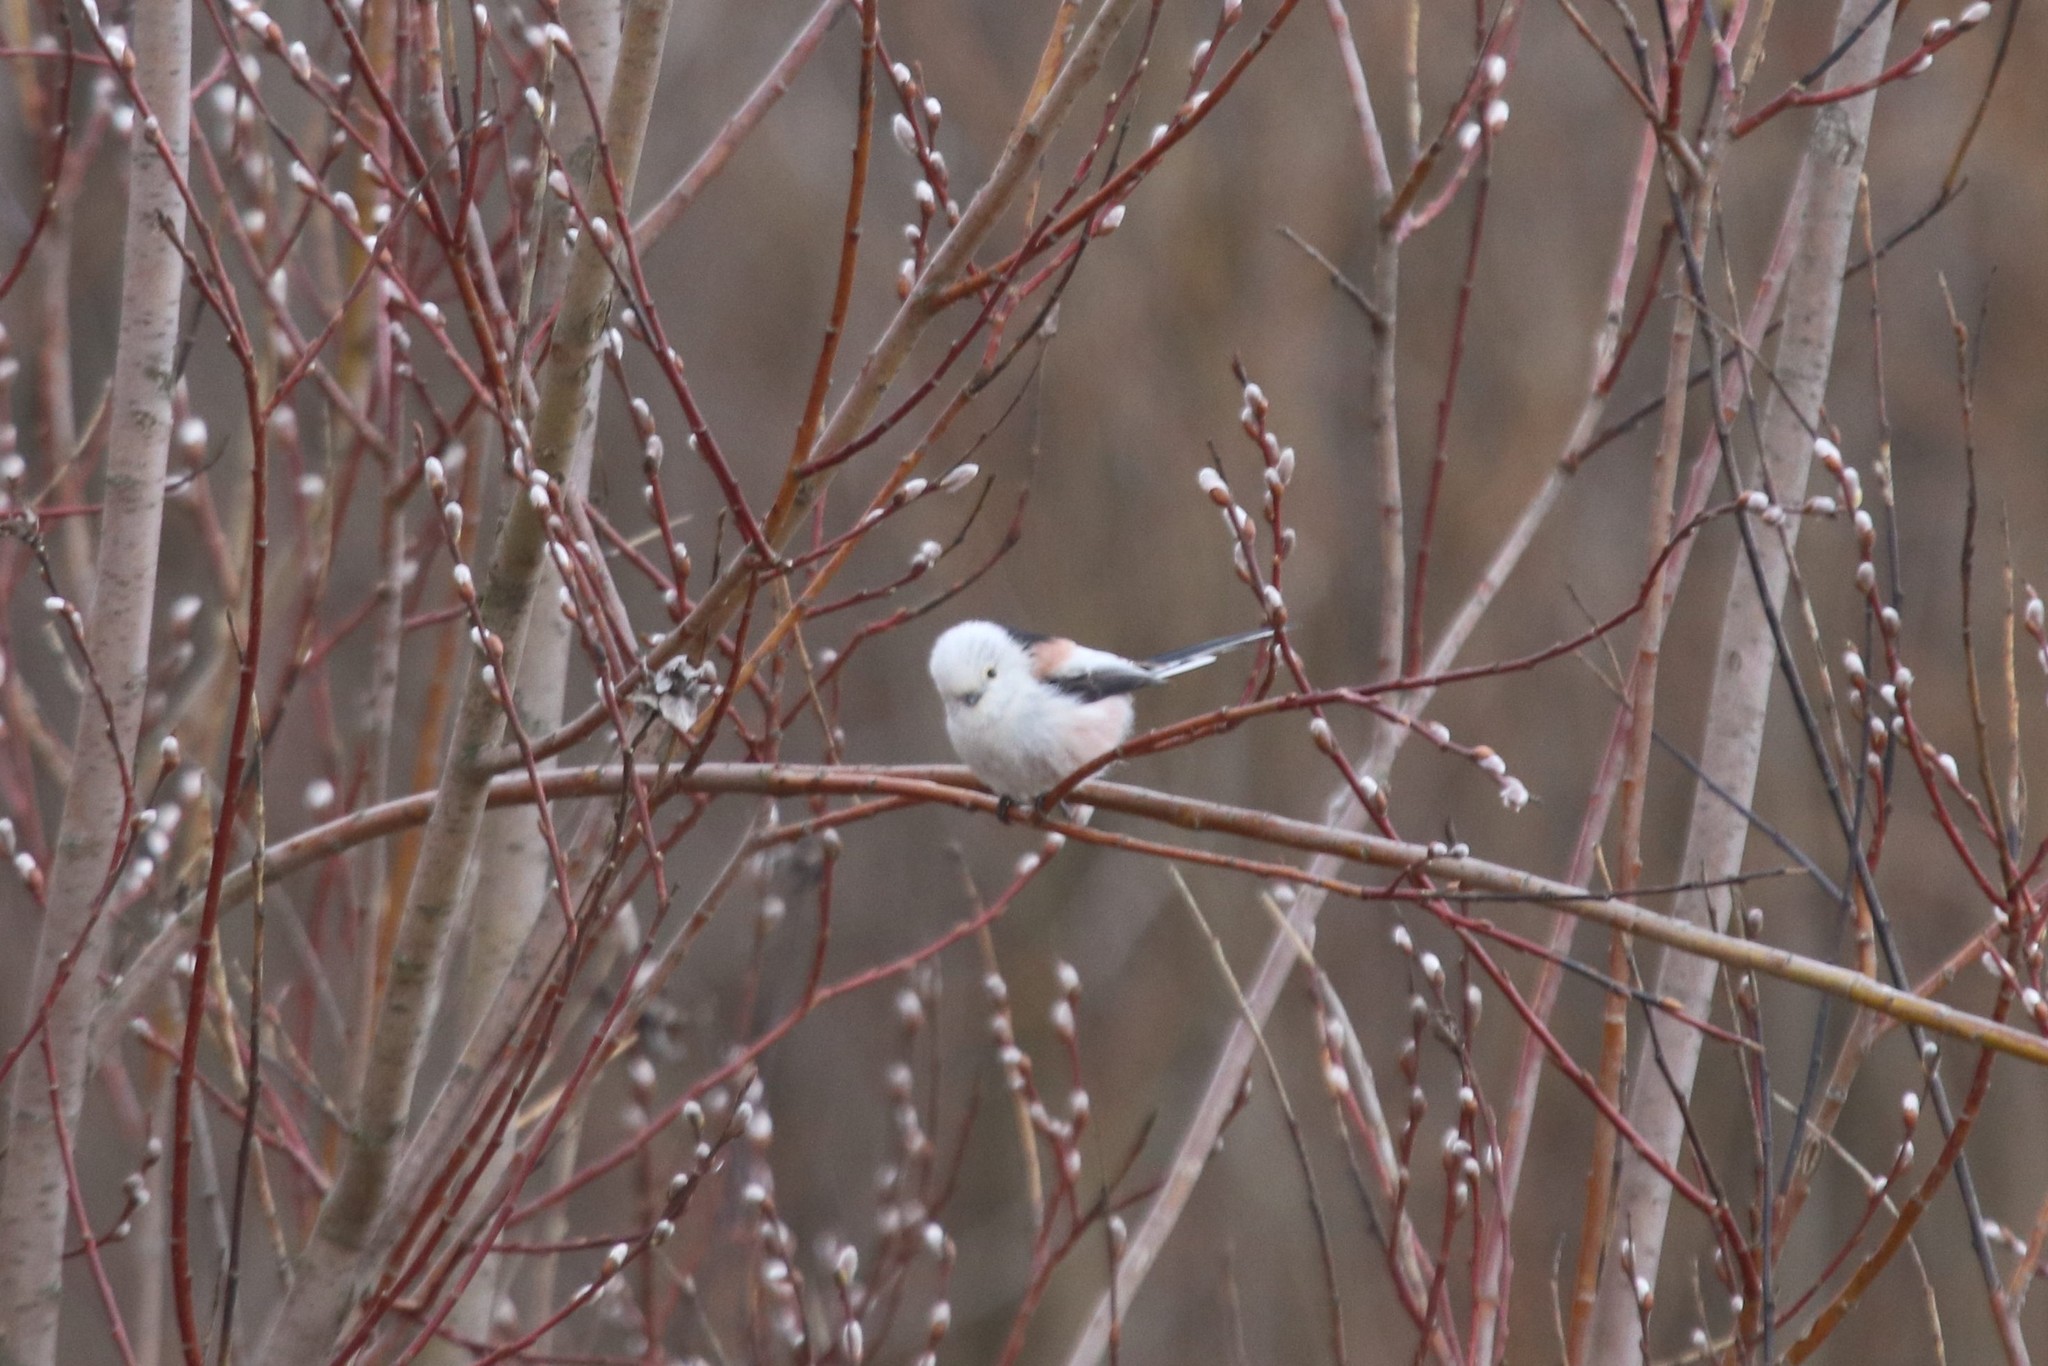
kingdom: Animalia
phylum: Chordata
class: Aves
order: Passeriformes
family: Aegithalidae
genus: Aegithalos
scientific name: Aegithalos caudatus
